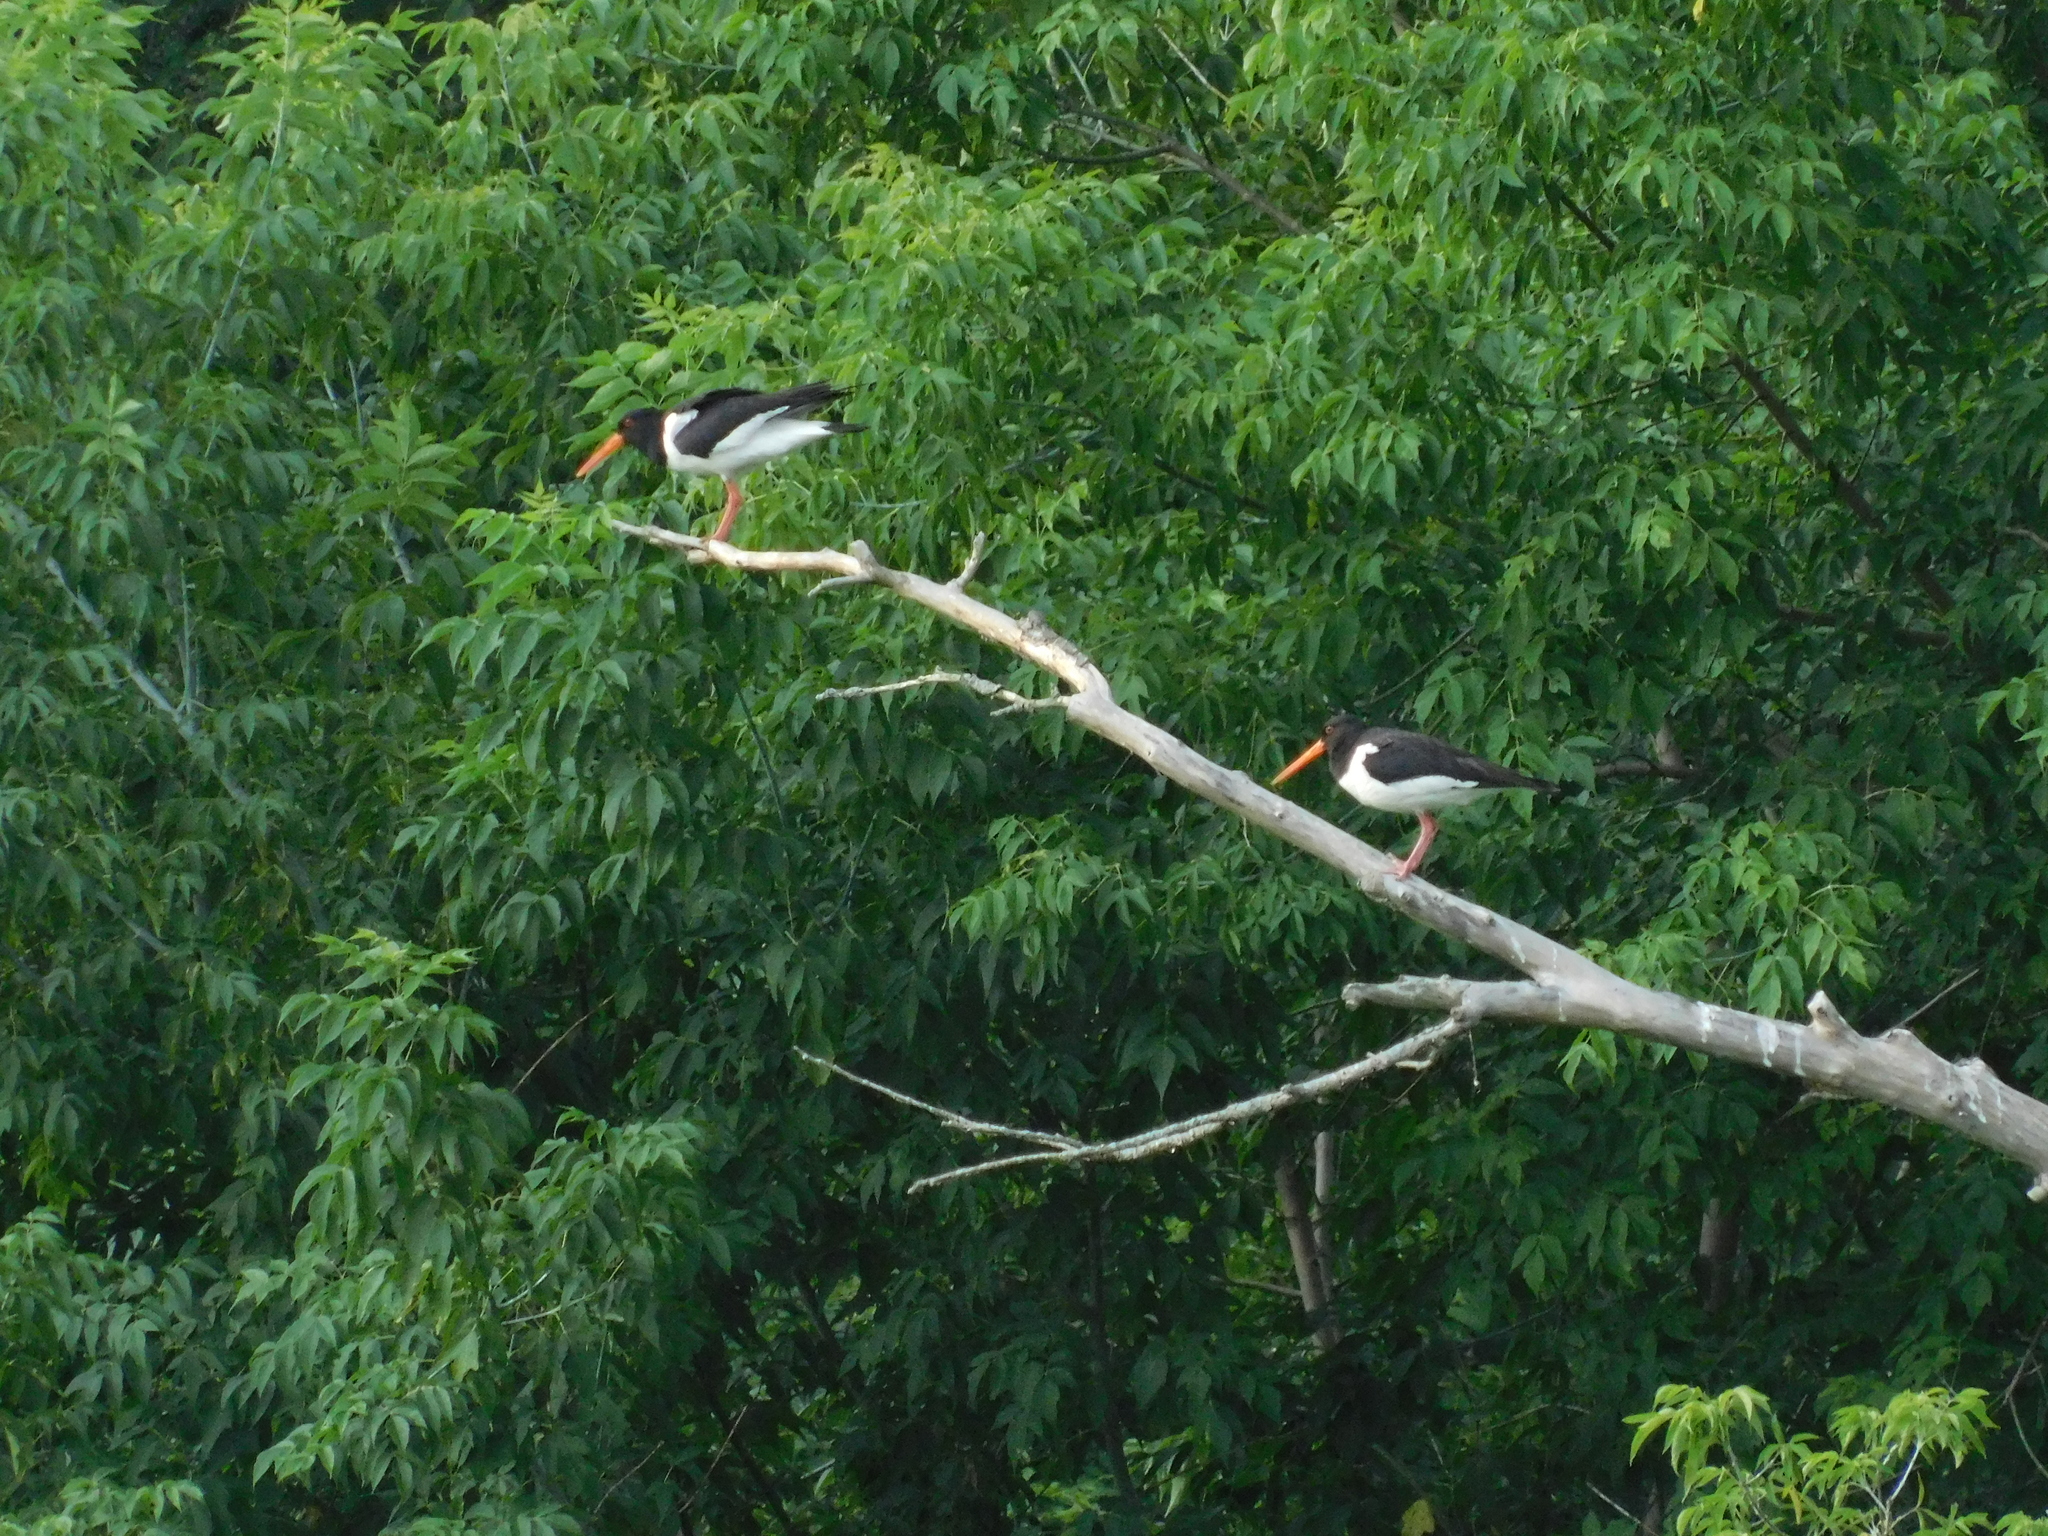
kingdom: Animalia
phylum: Chordata
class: Aves
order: Charadriiformes
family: Haematopodidae
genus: Haematopus
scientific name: Haematopus ostralegus
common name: Eurasian oystercatcher
